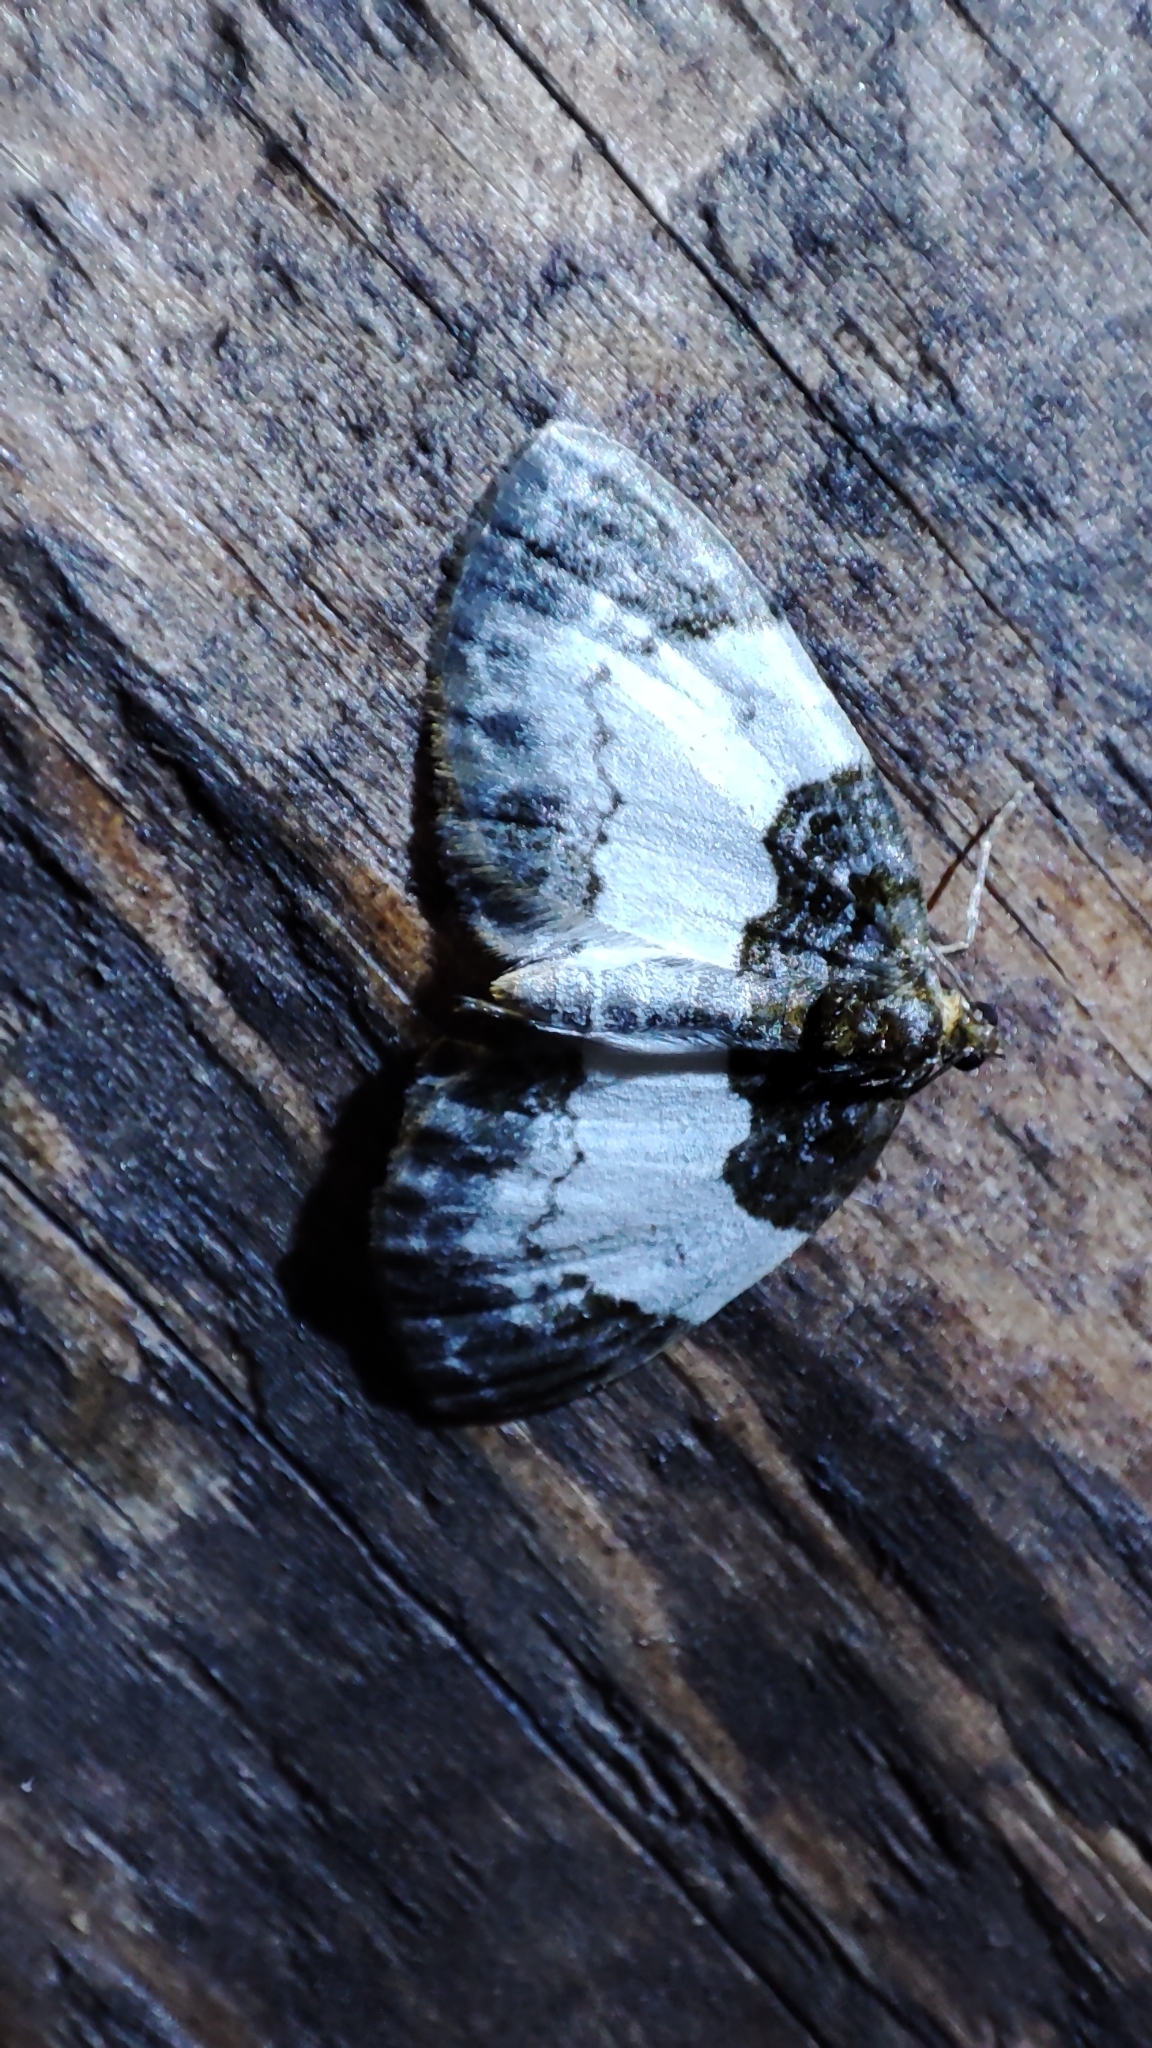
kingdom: Animalia
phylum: Arthropoda
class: Insecta
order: Lepidoptera
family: Geometridae
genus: Mesoleuca
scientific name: Mesoleuca albicillata
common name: Beautiful carpet
